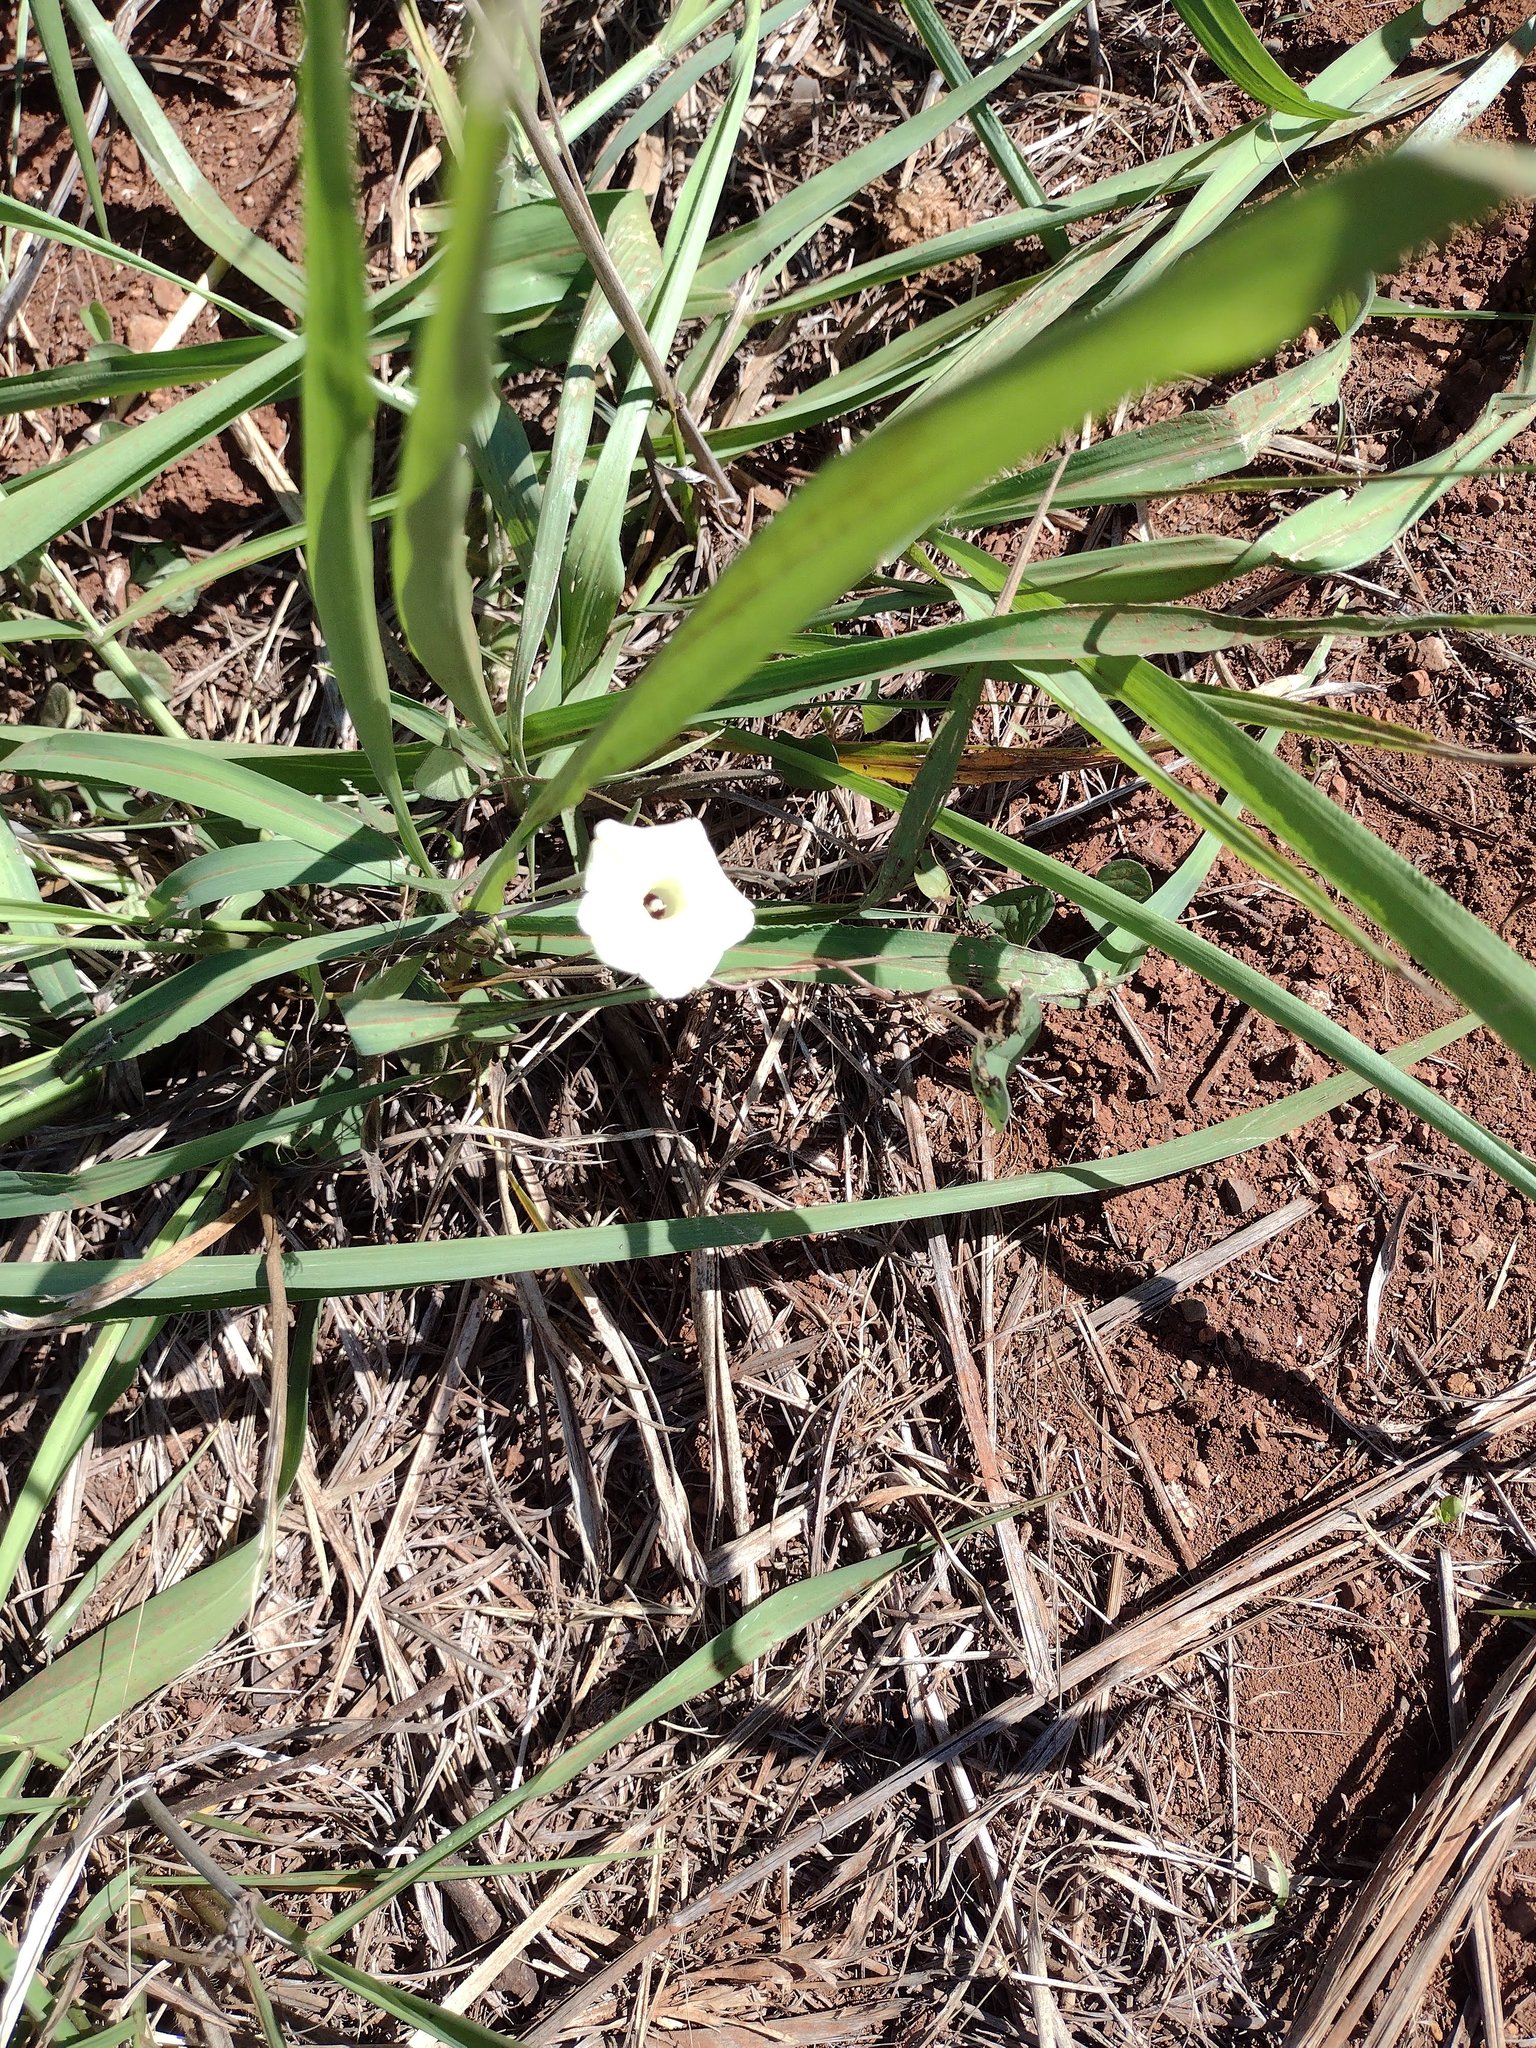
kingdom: Plantae
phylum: Tracheophyta
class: Magnoliopsida
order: Solanales
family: Convolvulaceae
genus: Ipomoea
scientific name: Ipomoea obscura
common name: Obscure morning-glory
